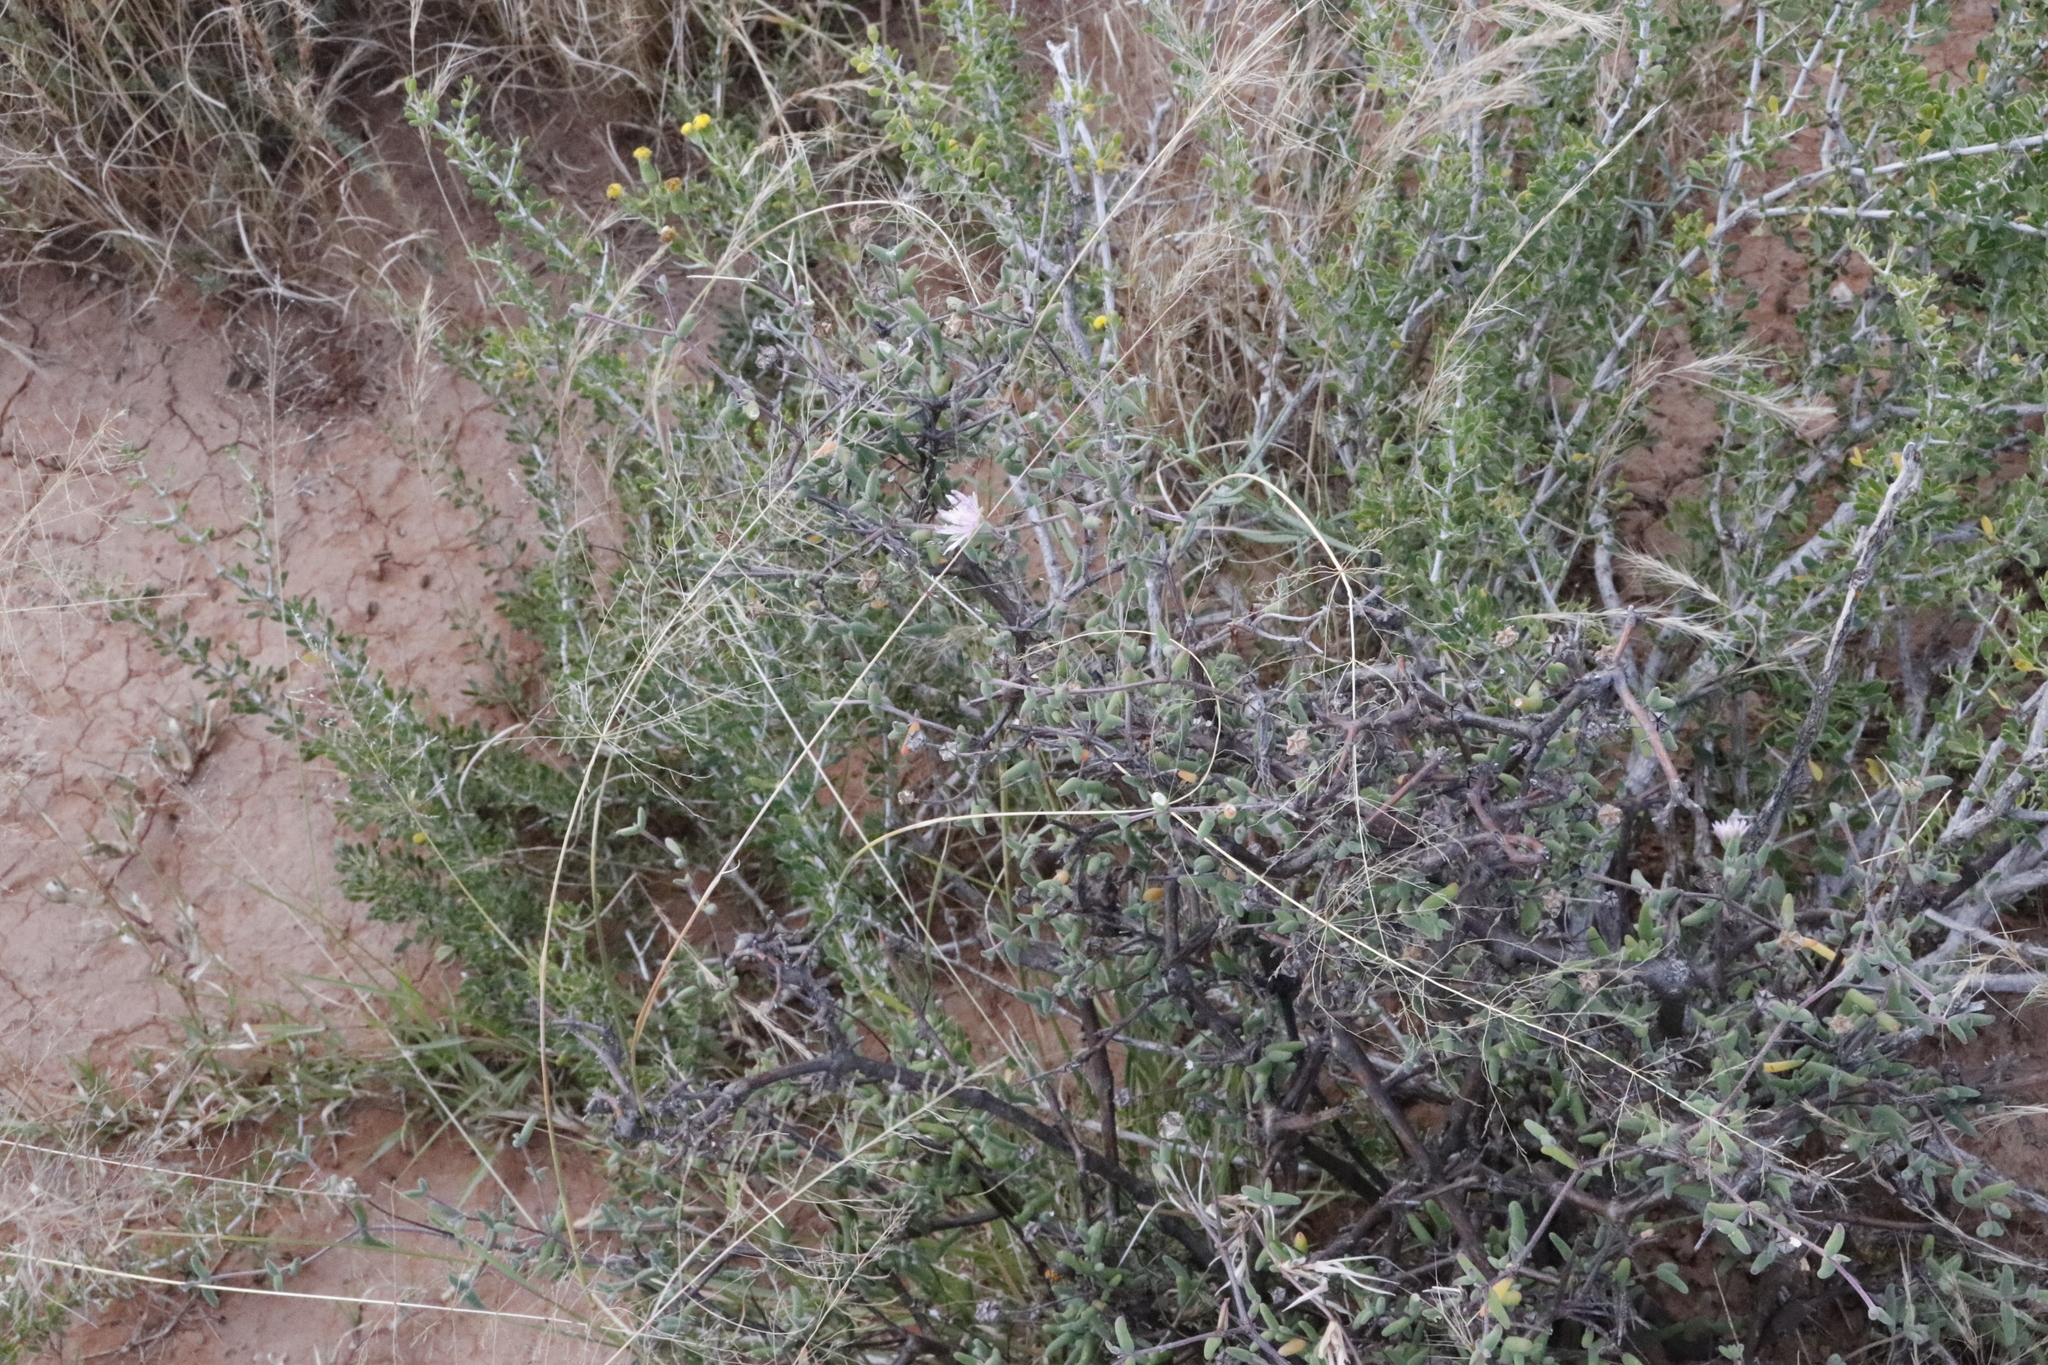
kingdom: Plantae
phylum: Tracheophyta
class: Magnoliopsida
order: Caryophyllales
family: Aizoaceae
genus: Drosanthemum
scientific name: Drosanthemum lique
